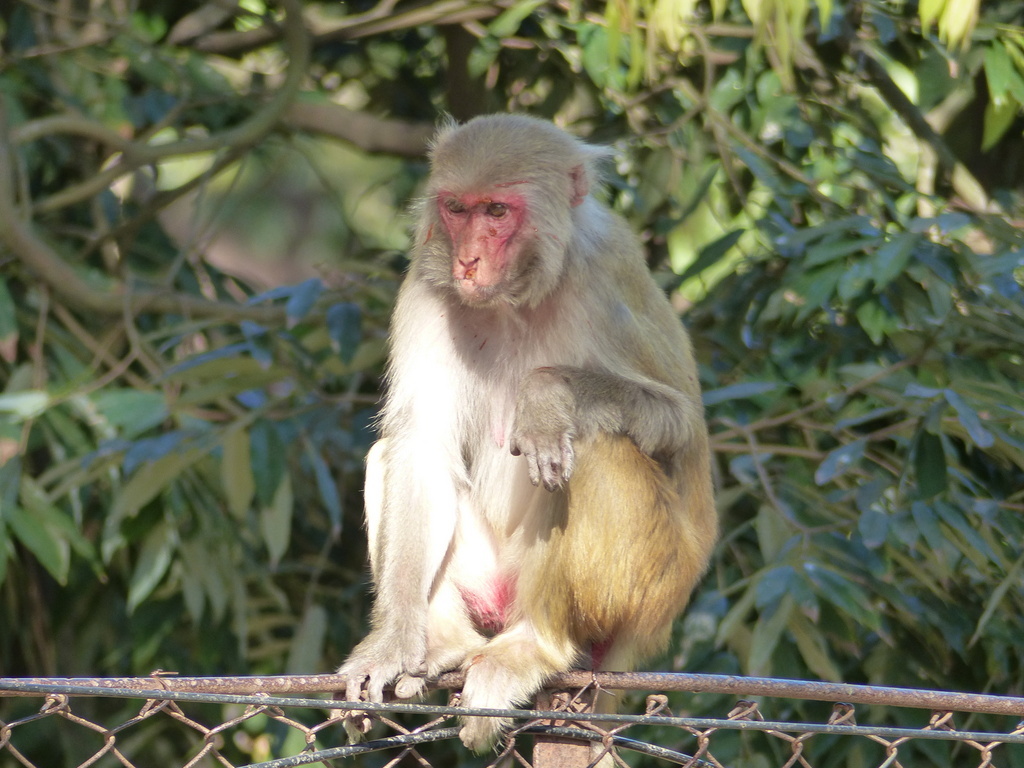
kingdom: Animalia
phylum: Chordata
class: Mammalia
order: Primates
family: Cercopithecidae
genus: Macaca
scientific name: Macaca mulatta
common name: Rhesus monkey
